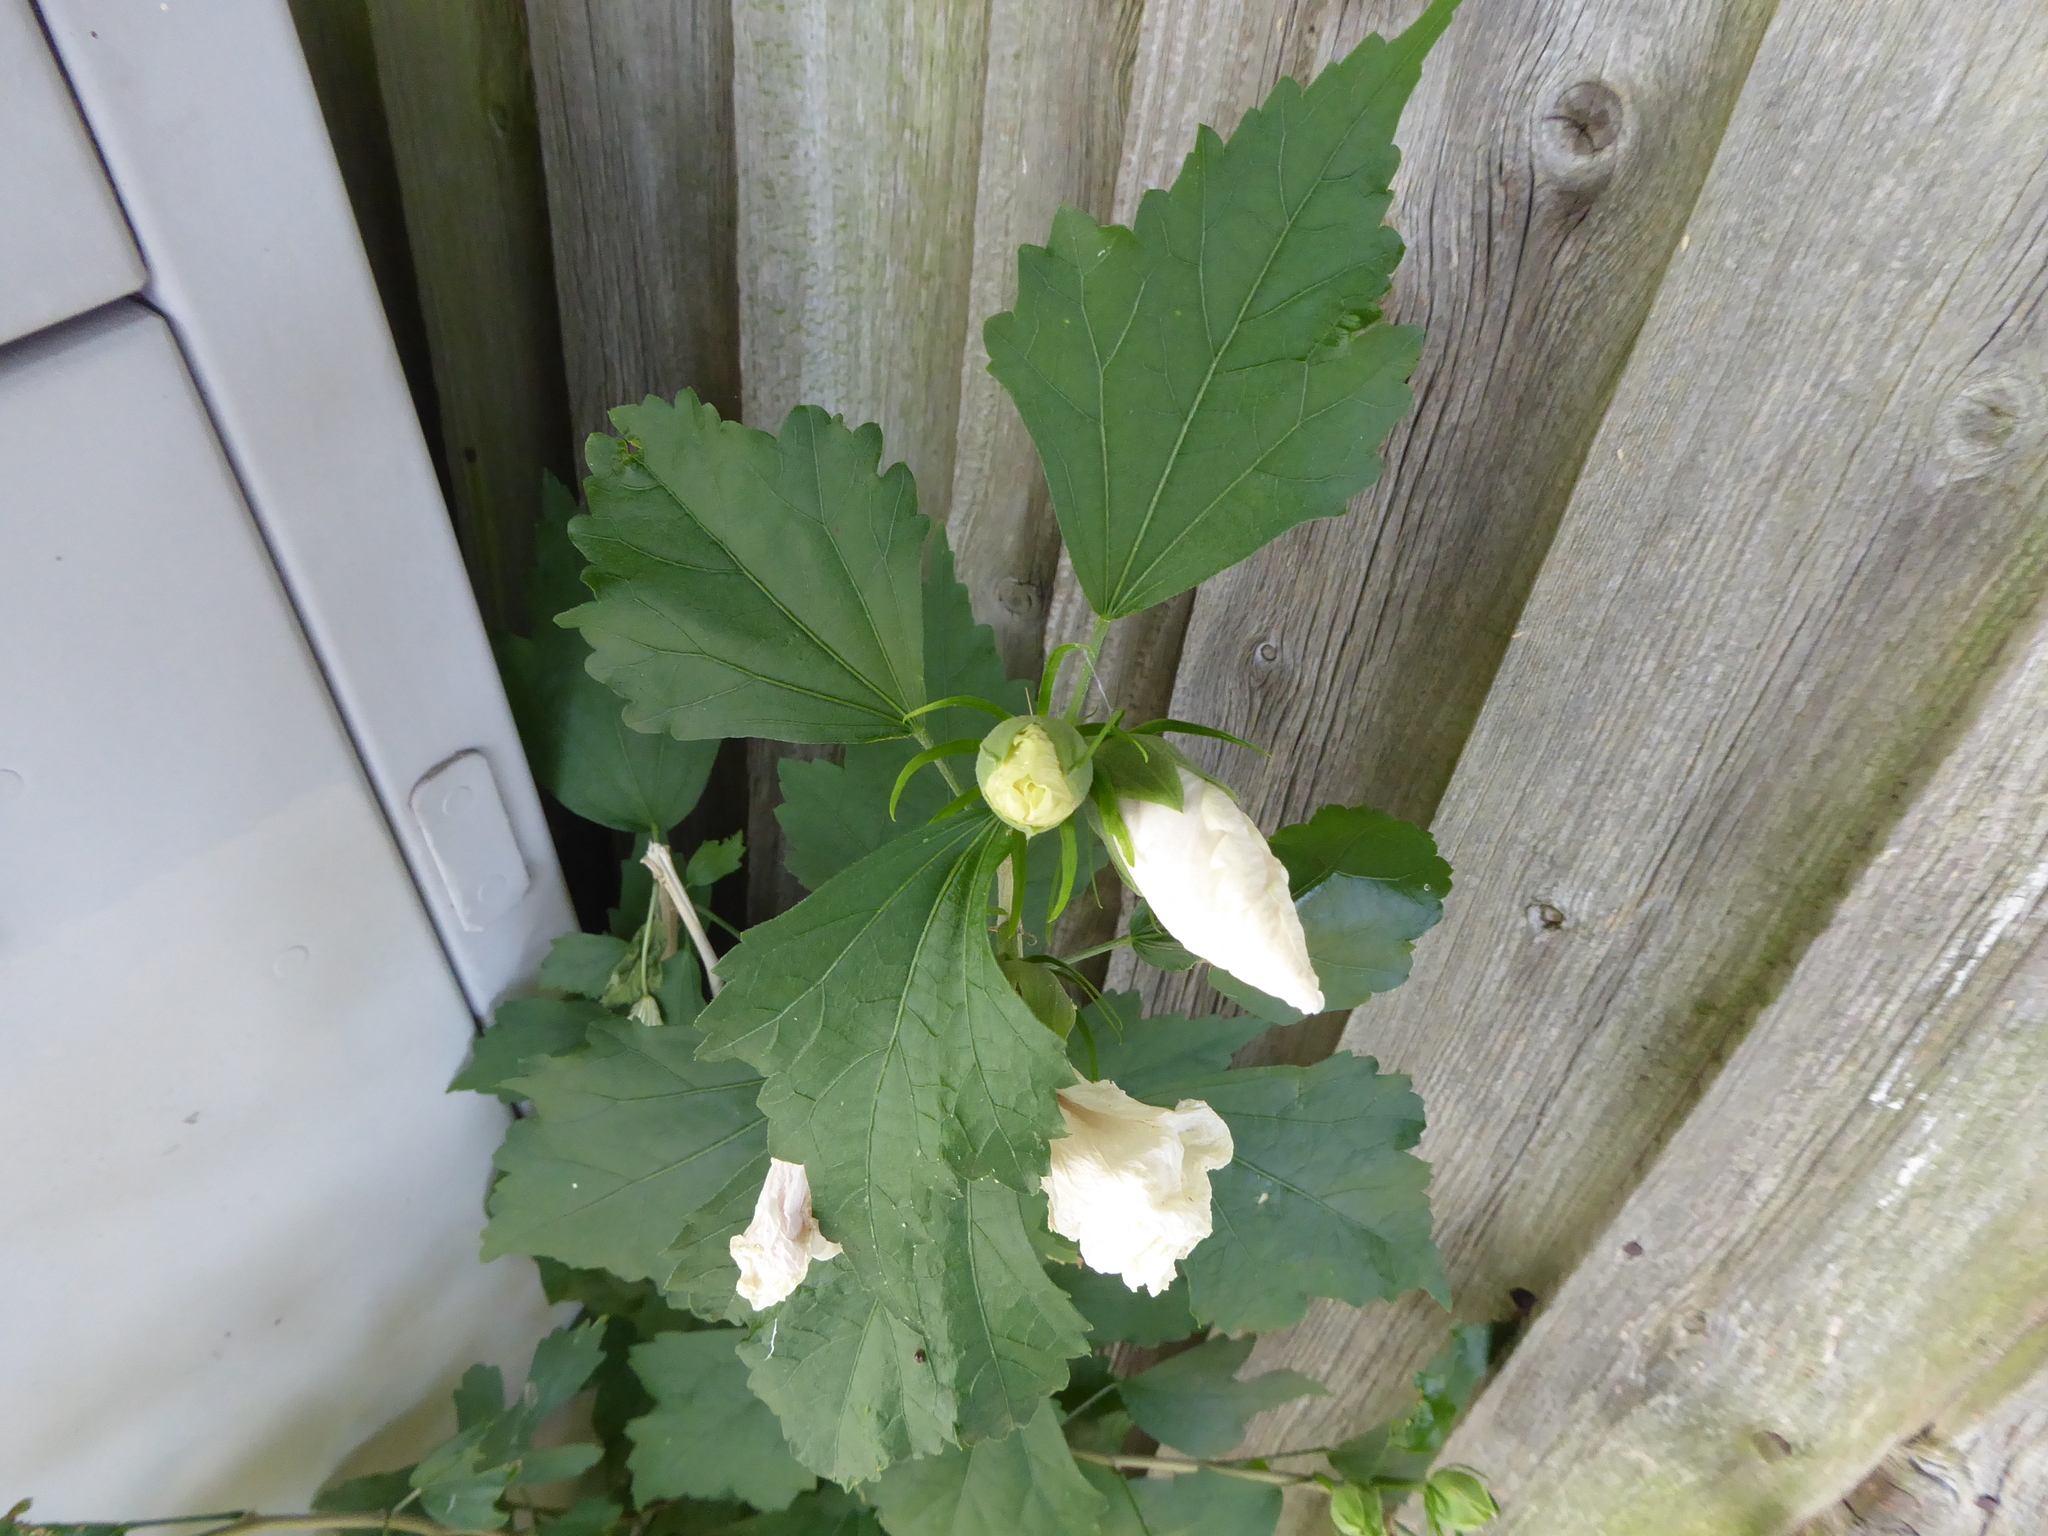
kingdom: Plantae
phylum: Tracheophyta
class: Magnoliopsida
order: Malvales
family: Malvaceae
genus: Hibiscus
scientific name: Hibiscus syriacus
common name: Syrian ketmia
